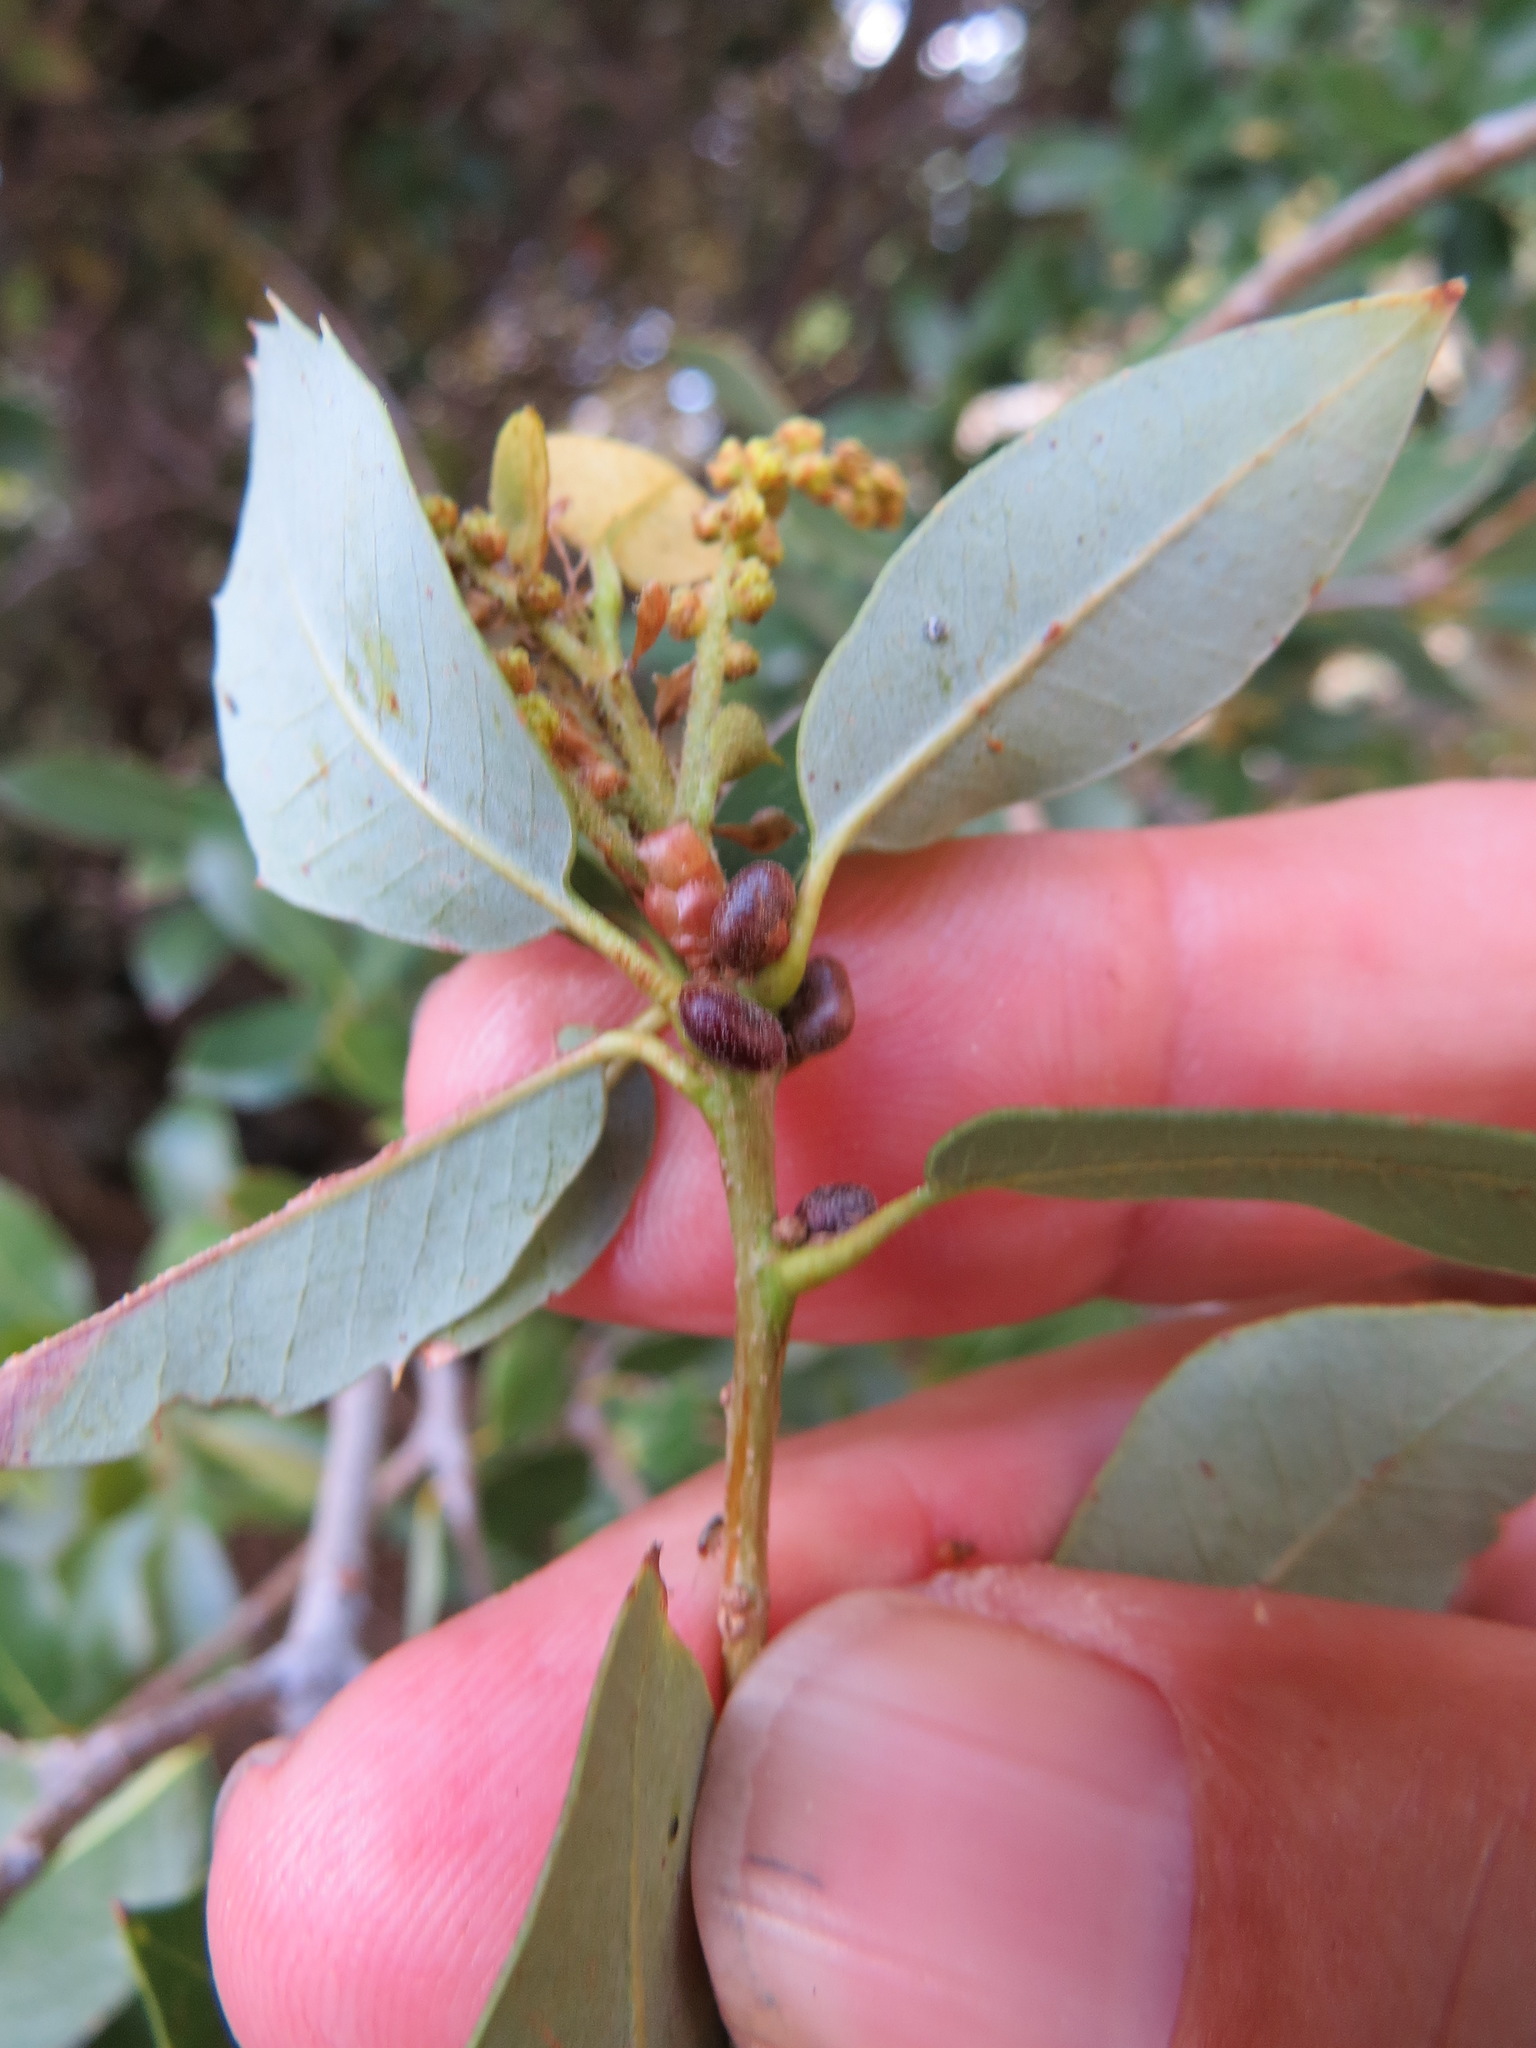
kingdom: Animalia
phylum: Arthropoda
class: Insecta
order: Hymenoptera
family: Cynipidae
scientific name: Cynipidae
